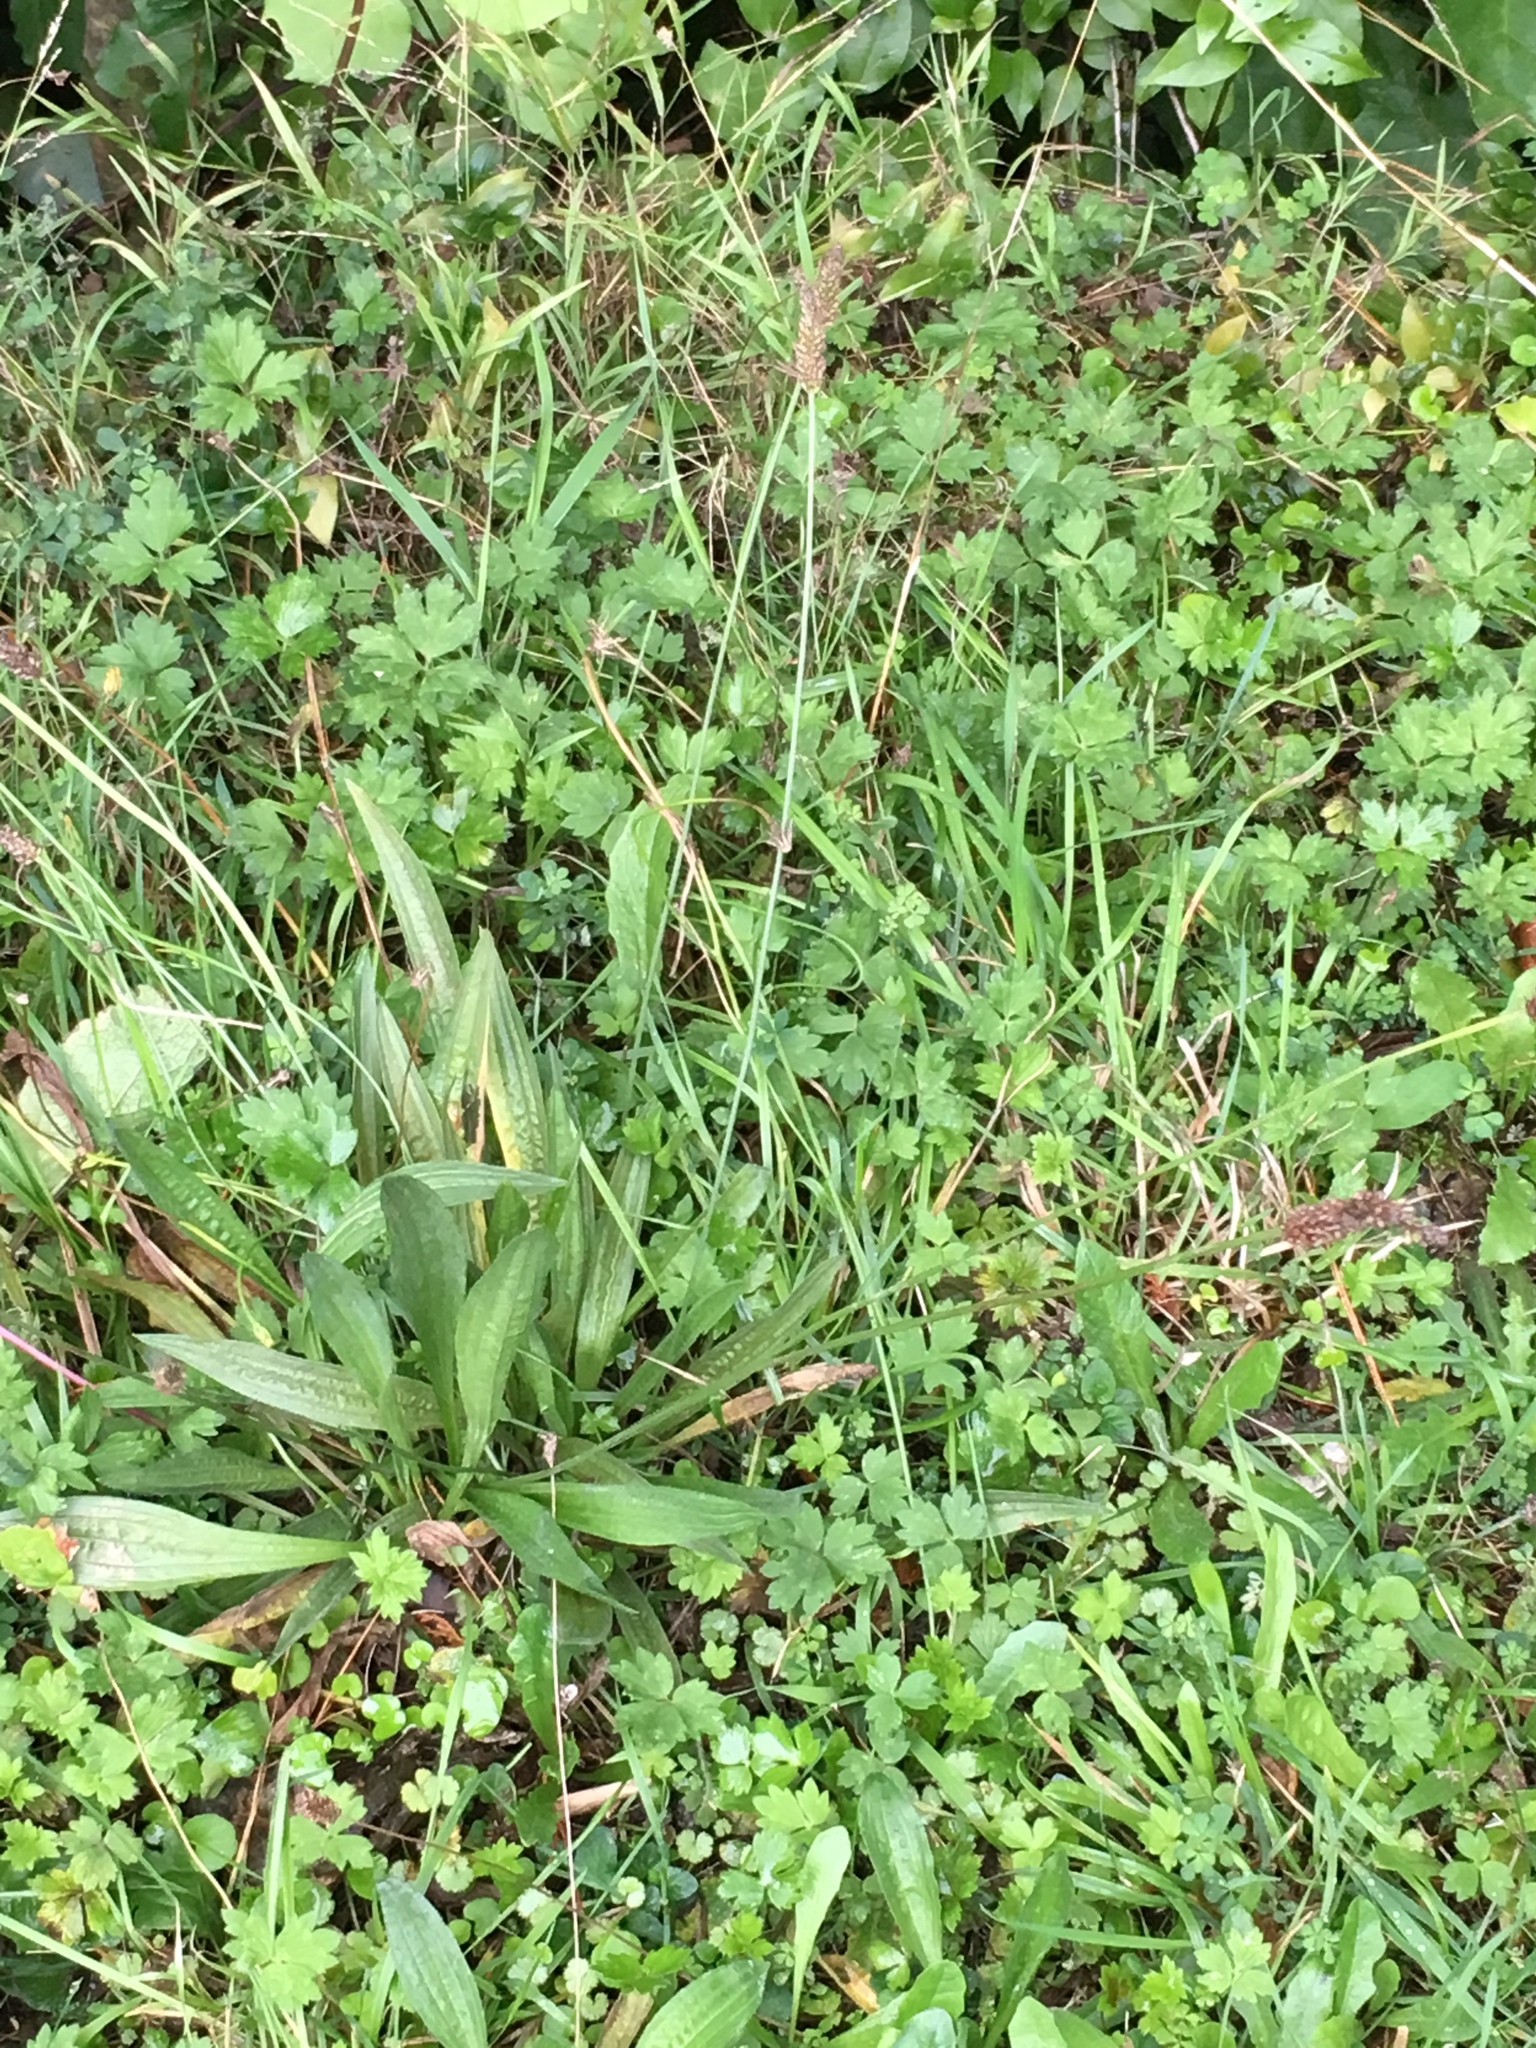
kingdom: Plantae
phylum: Tracheophyta
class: Magnoliopsida
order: Lamiales
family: Plantaginaceae
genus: Plantago
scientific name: Plantago lanceolata
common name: Ribwort plantain
